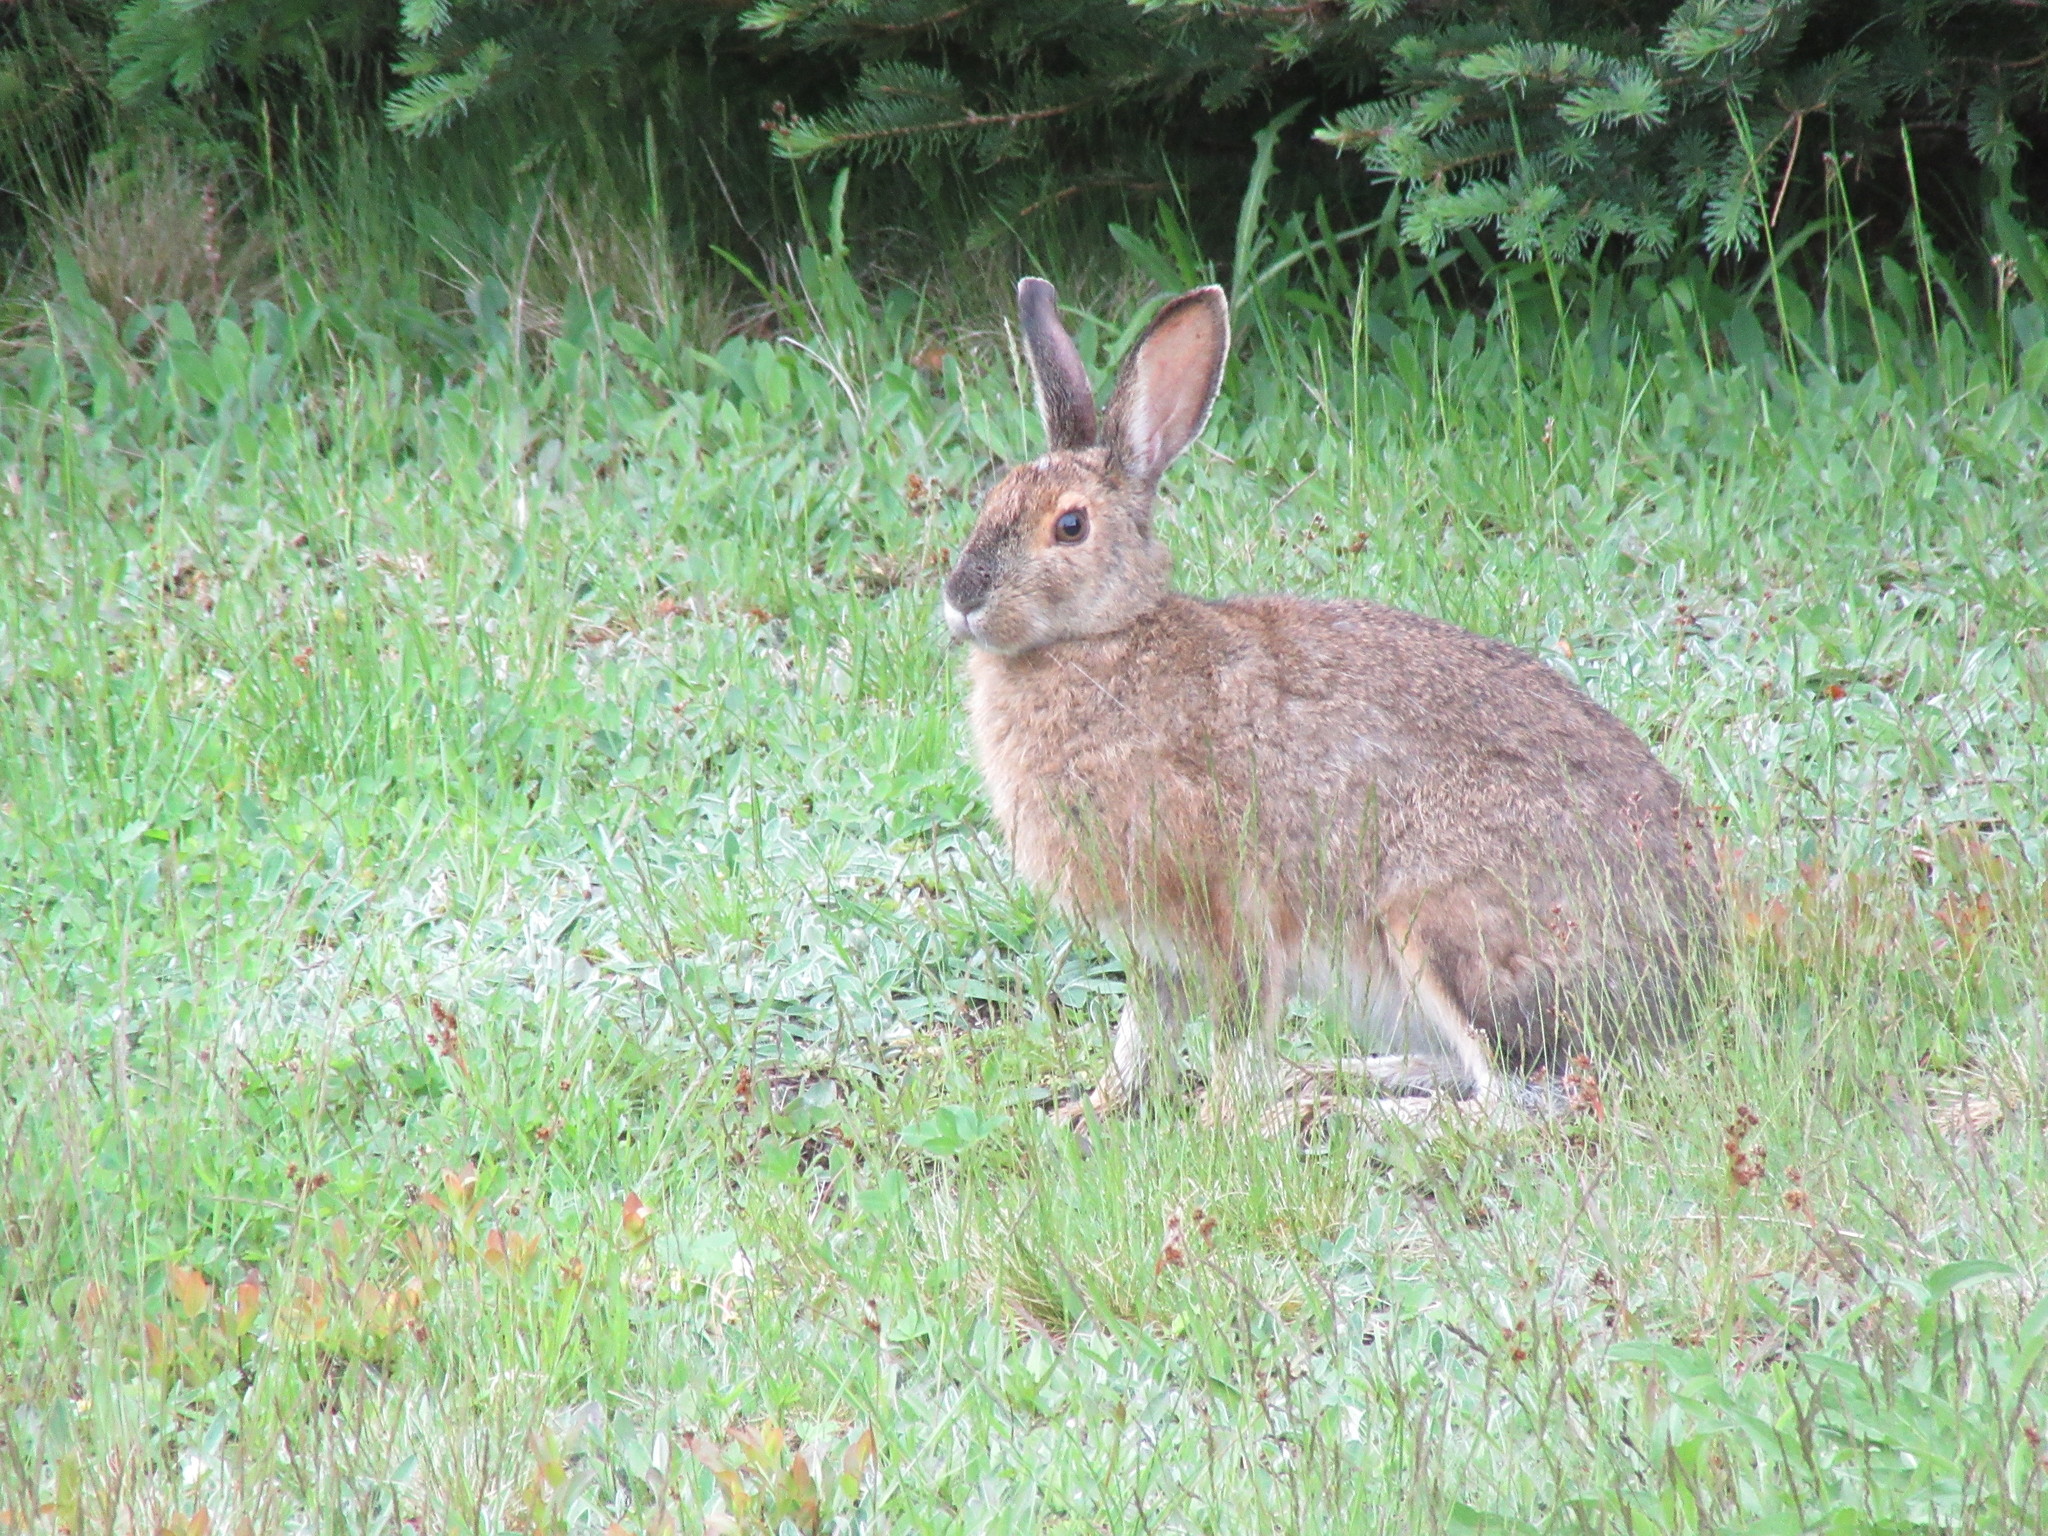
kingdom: Animalia
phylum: Chordata
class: Mammalia
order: Lagomorpha
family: Leporidae
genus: Lepus
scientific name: Lepus americanus
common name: Snowshoe hare
